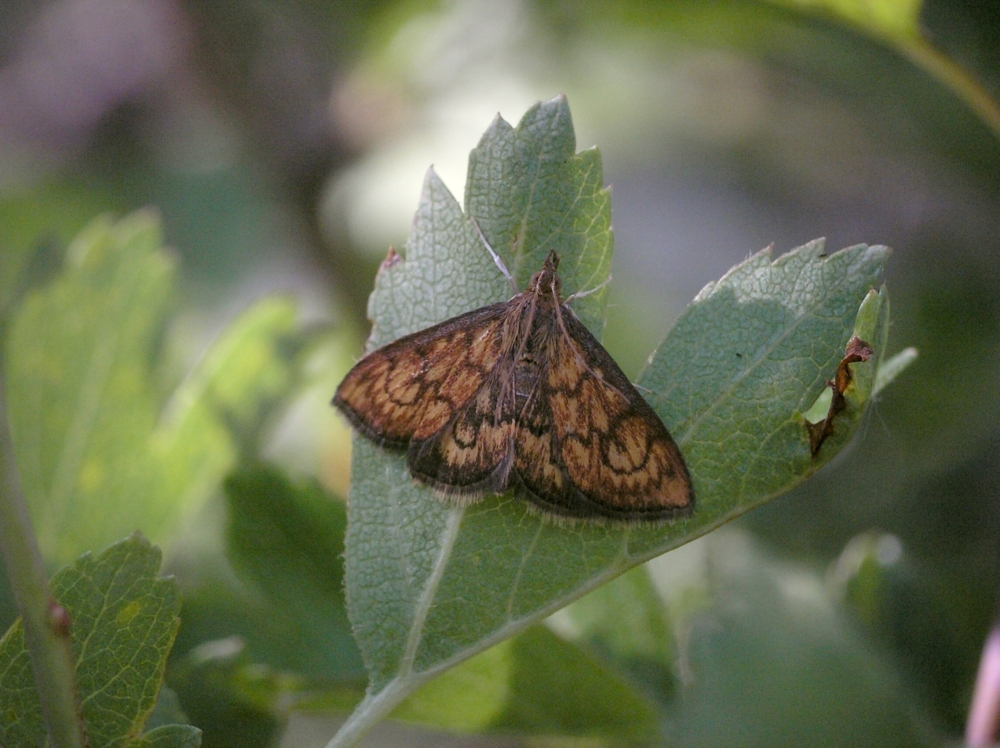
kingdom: Animalia
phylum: Arthropoda
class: Insecta
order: Lepidoptera
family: Crambidae
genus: Ecpyrrhorrhoe
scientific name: Ecpyrrhorrhoe rubiginalis
